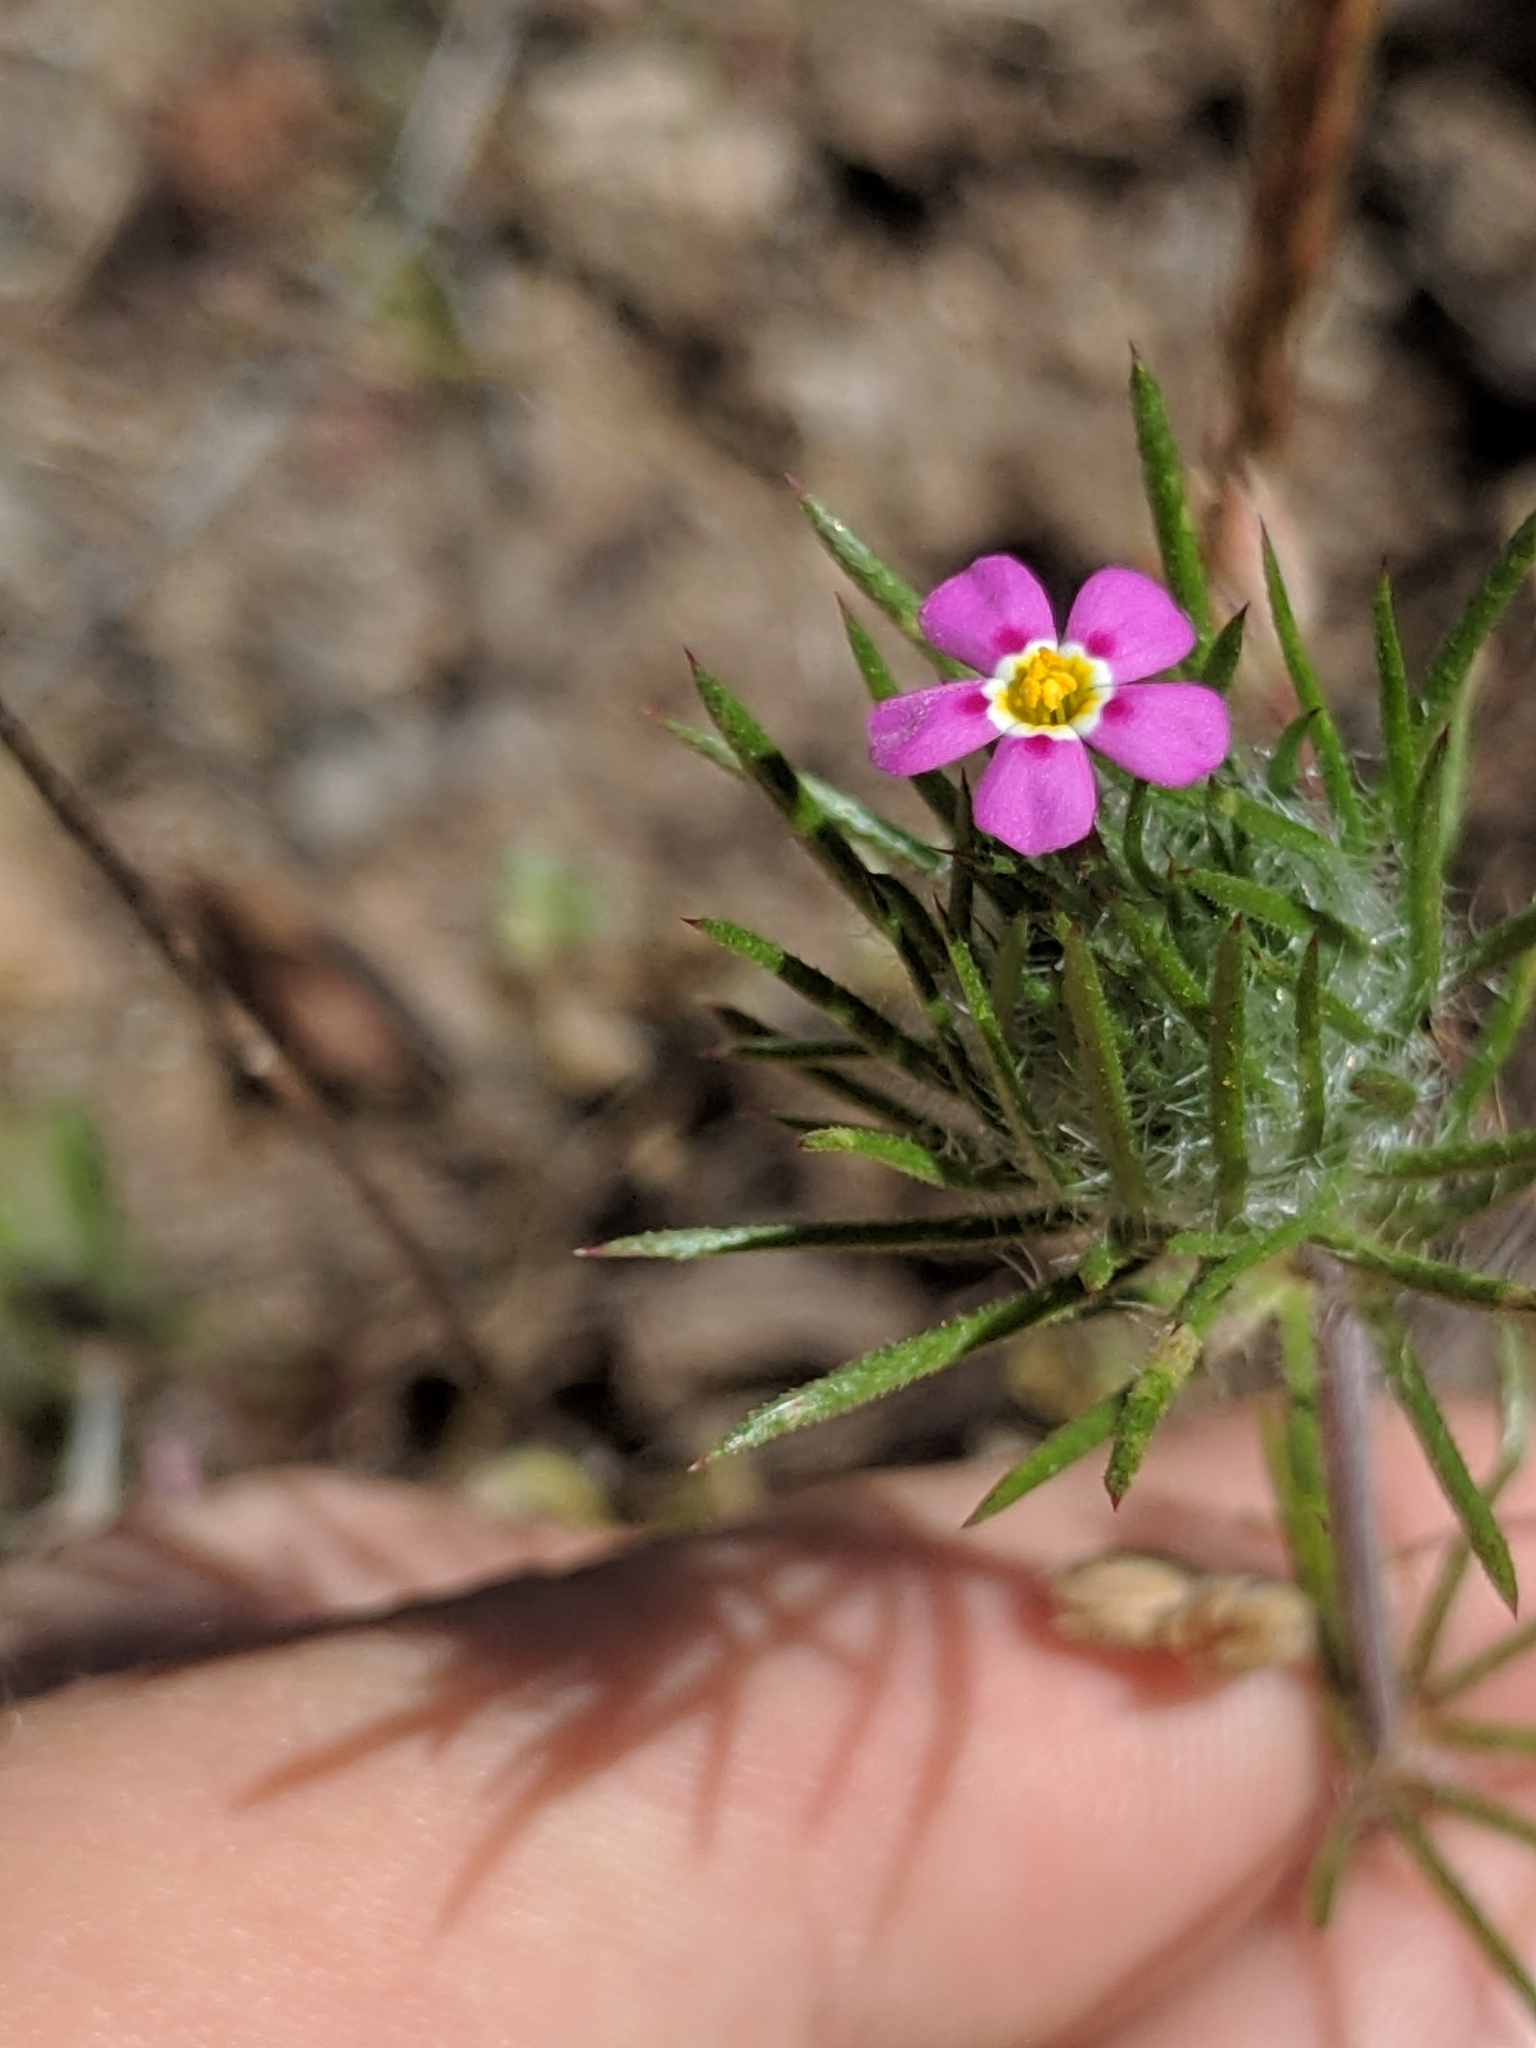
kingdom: Plantae
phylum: Tracheophyta
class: Magnoliopsida
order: Ericales
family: Polemoniaceae
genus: Leptosiphon
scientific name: Leptosiphon ciliatus
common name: Whiskerbrush
